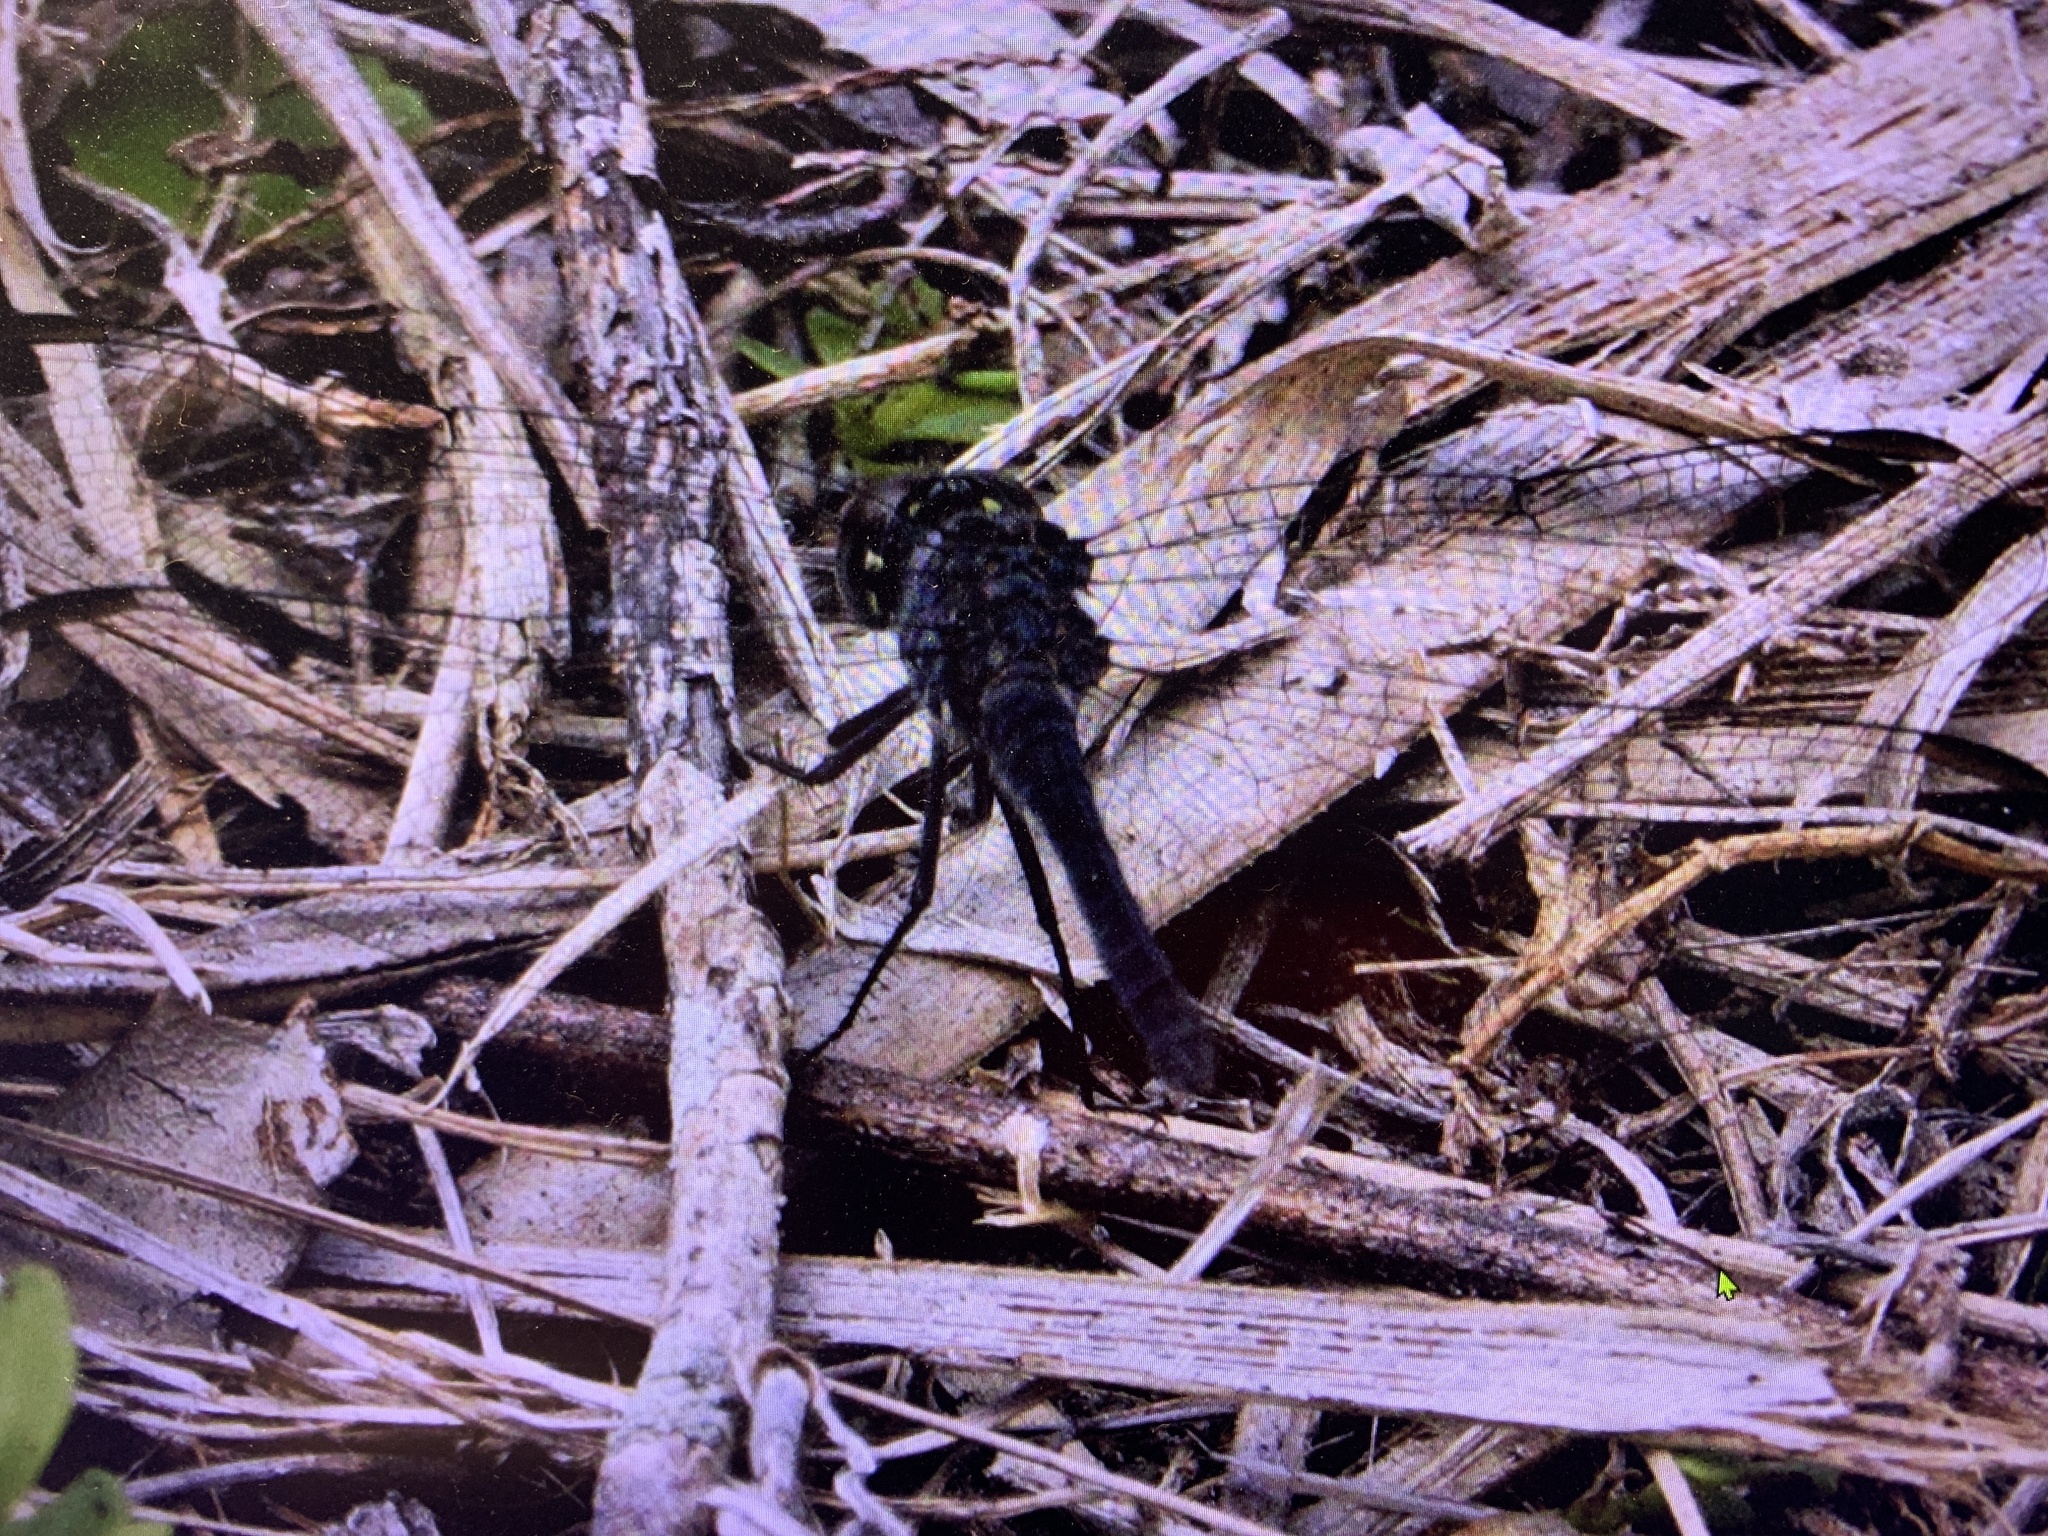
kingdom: Animalia
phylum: Arthropoda
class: Insecta
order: Odonata
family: Libellulidae
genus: Erythrodiplax
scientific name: Erythrodiplax berenice
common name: Seaside dragonlet
